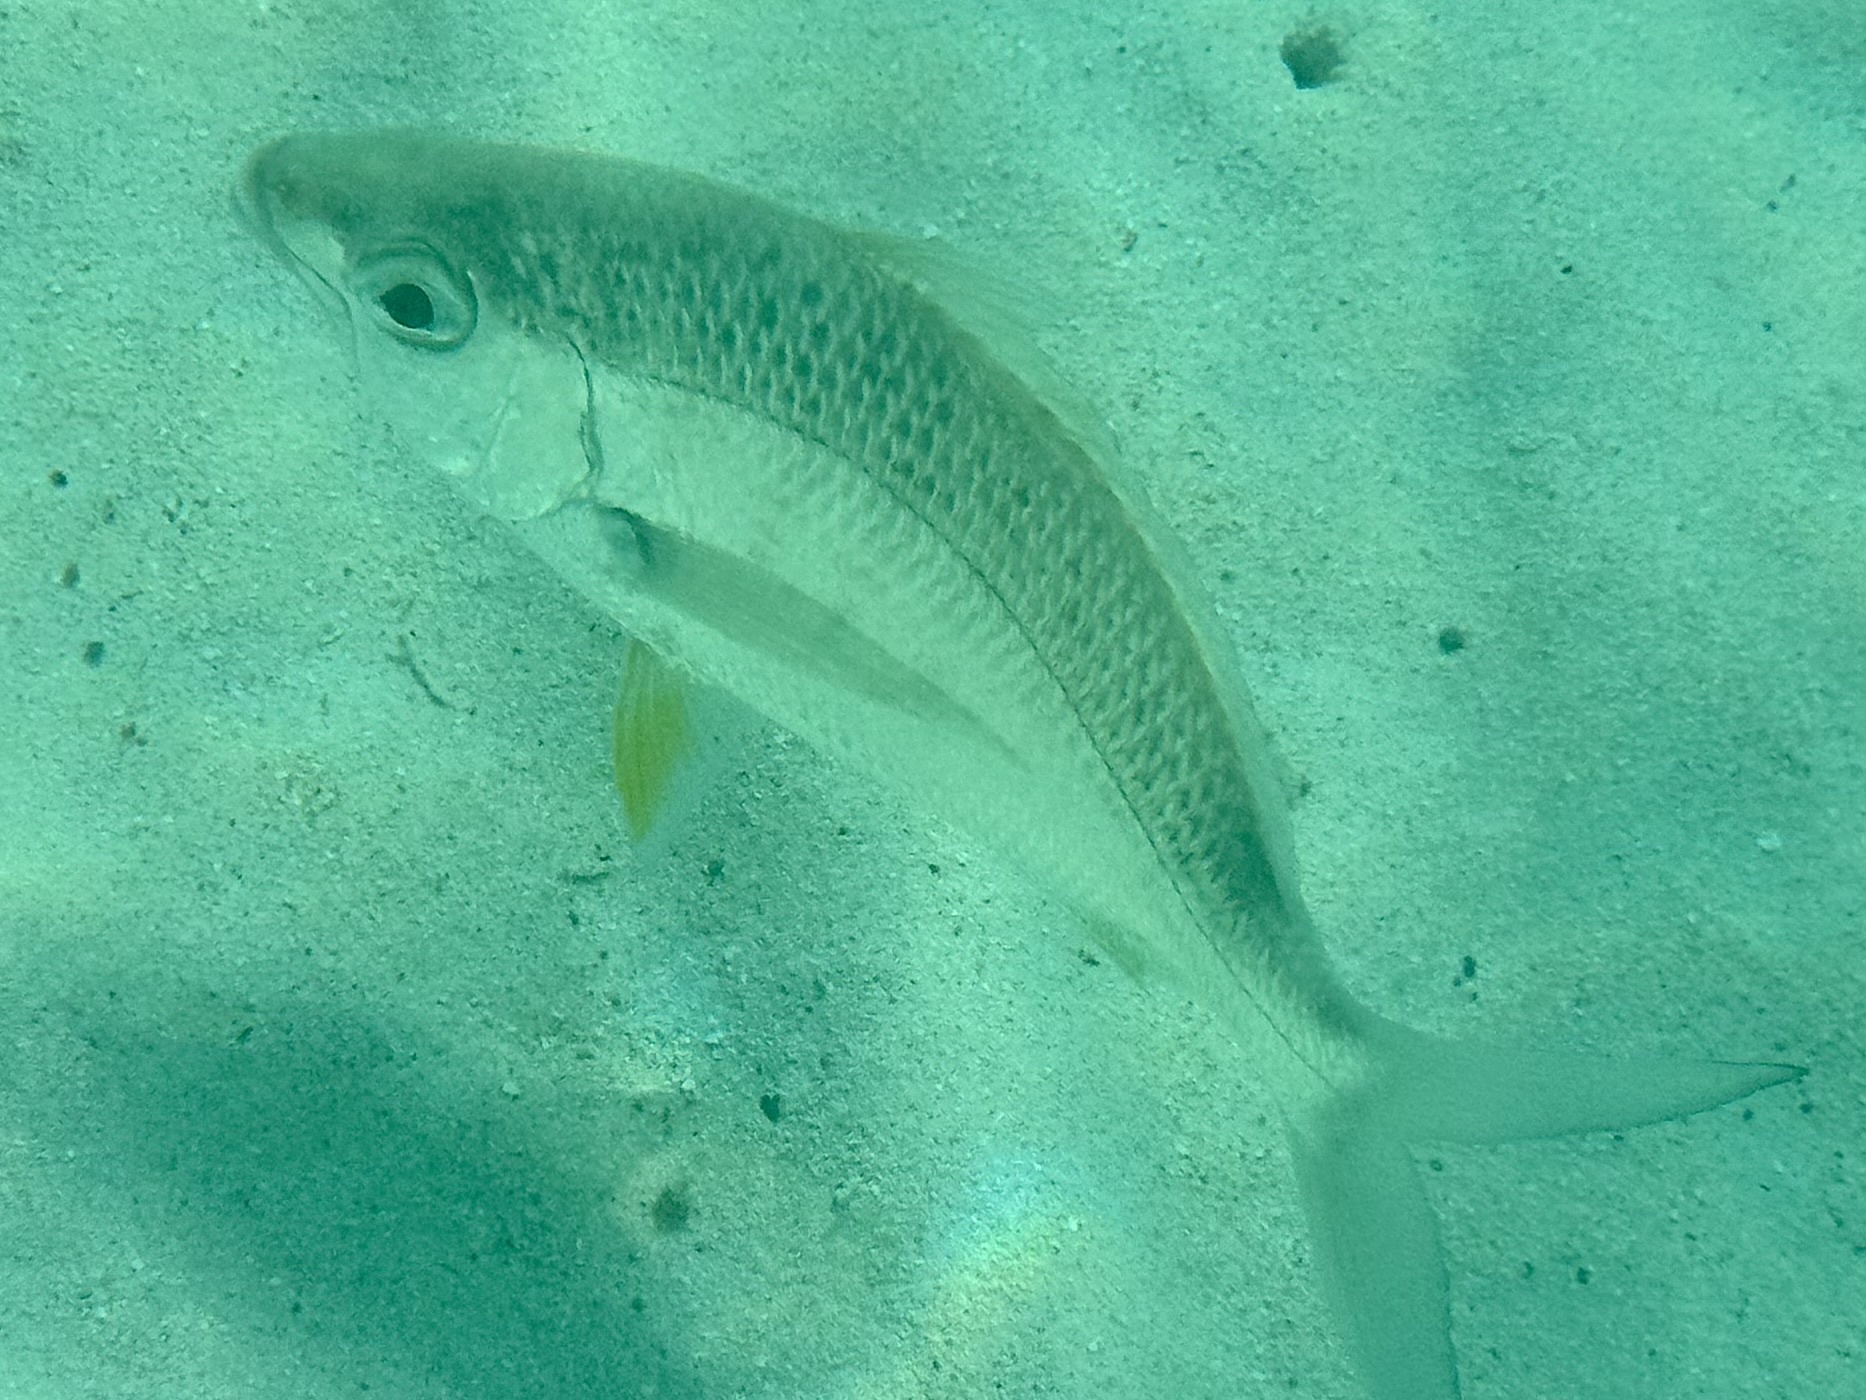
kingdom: Animalia
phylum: Chordata
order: Perciformes
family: Gerreidae
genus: Gerres
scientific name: Gerres cinereus
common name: Hedow
